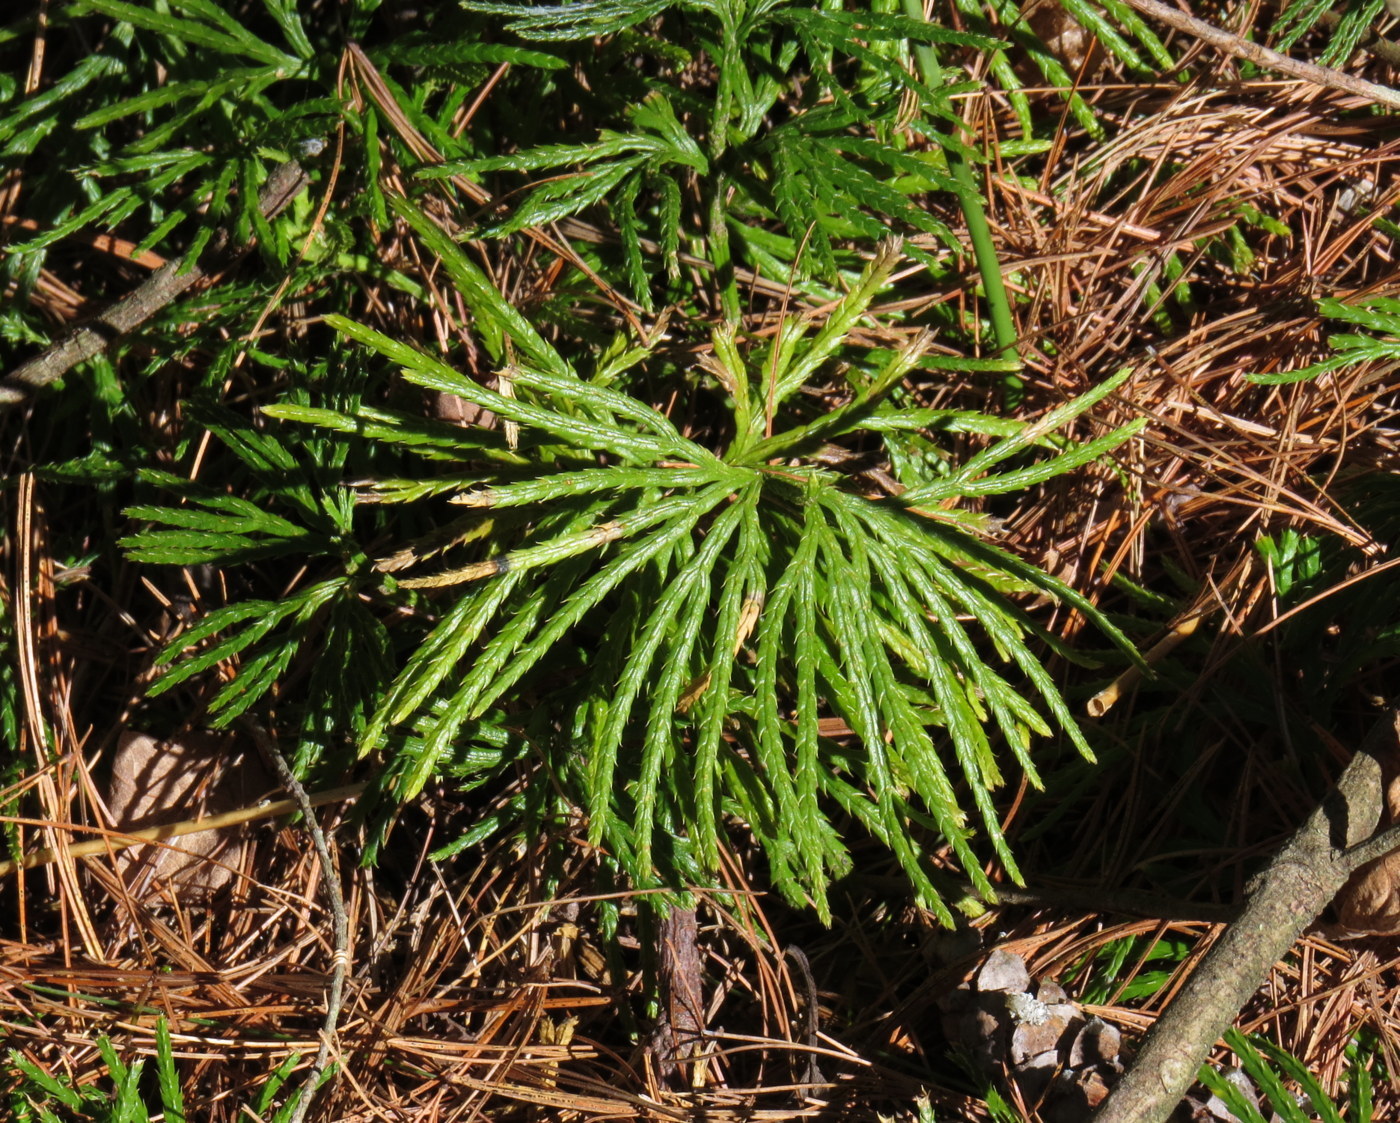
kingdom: Plantae
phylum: Tracheophyta
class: Lycopodiopsida
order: Lycopodiales
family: Lycopodiaceae
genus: Diphasiastrum
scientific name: Diphasiastrum digitatum
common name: Southern running-pine
